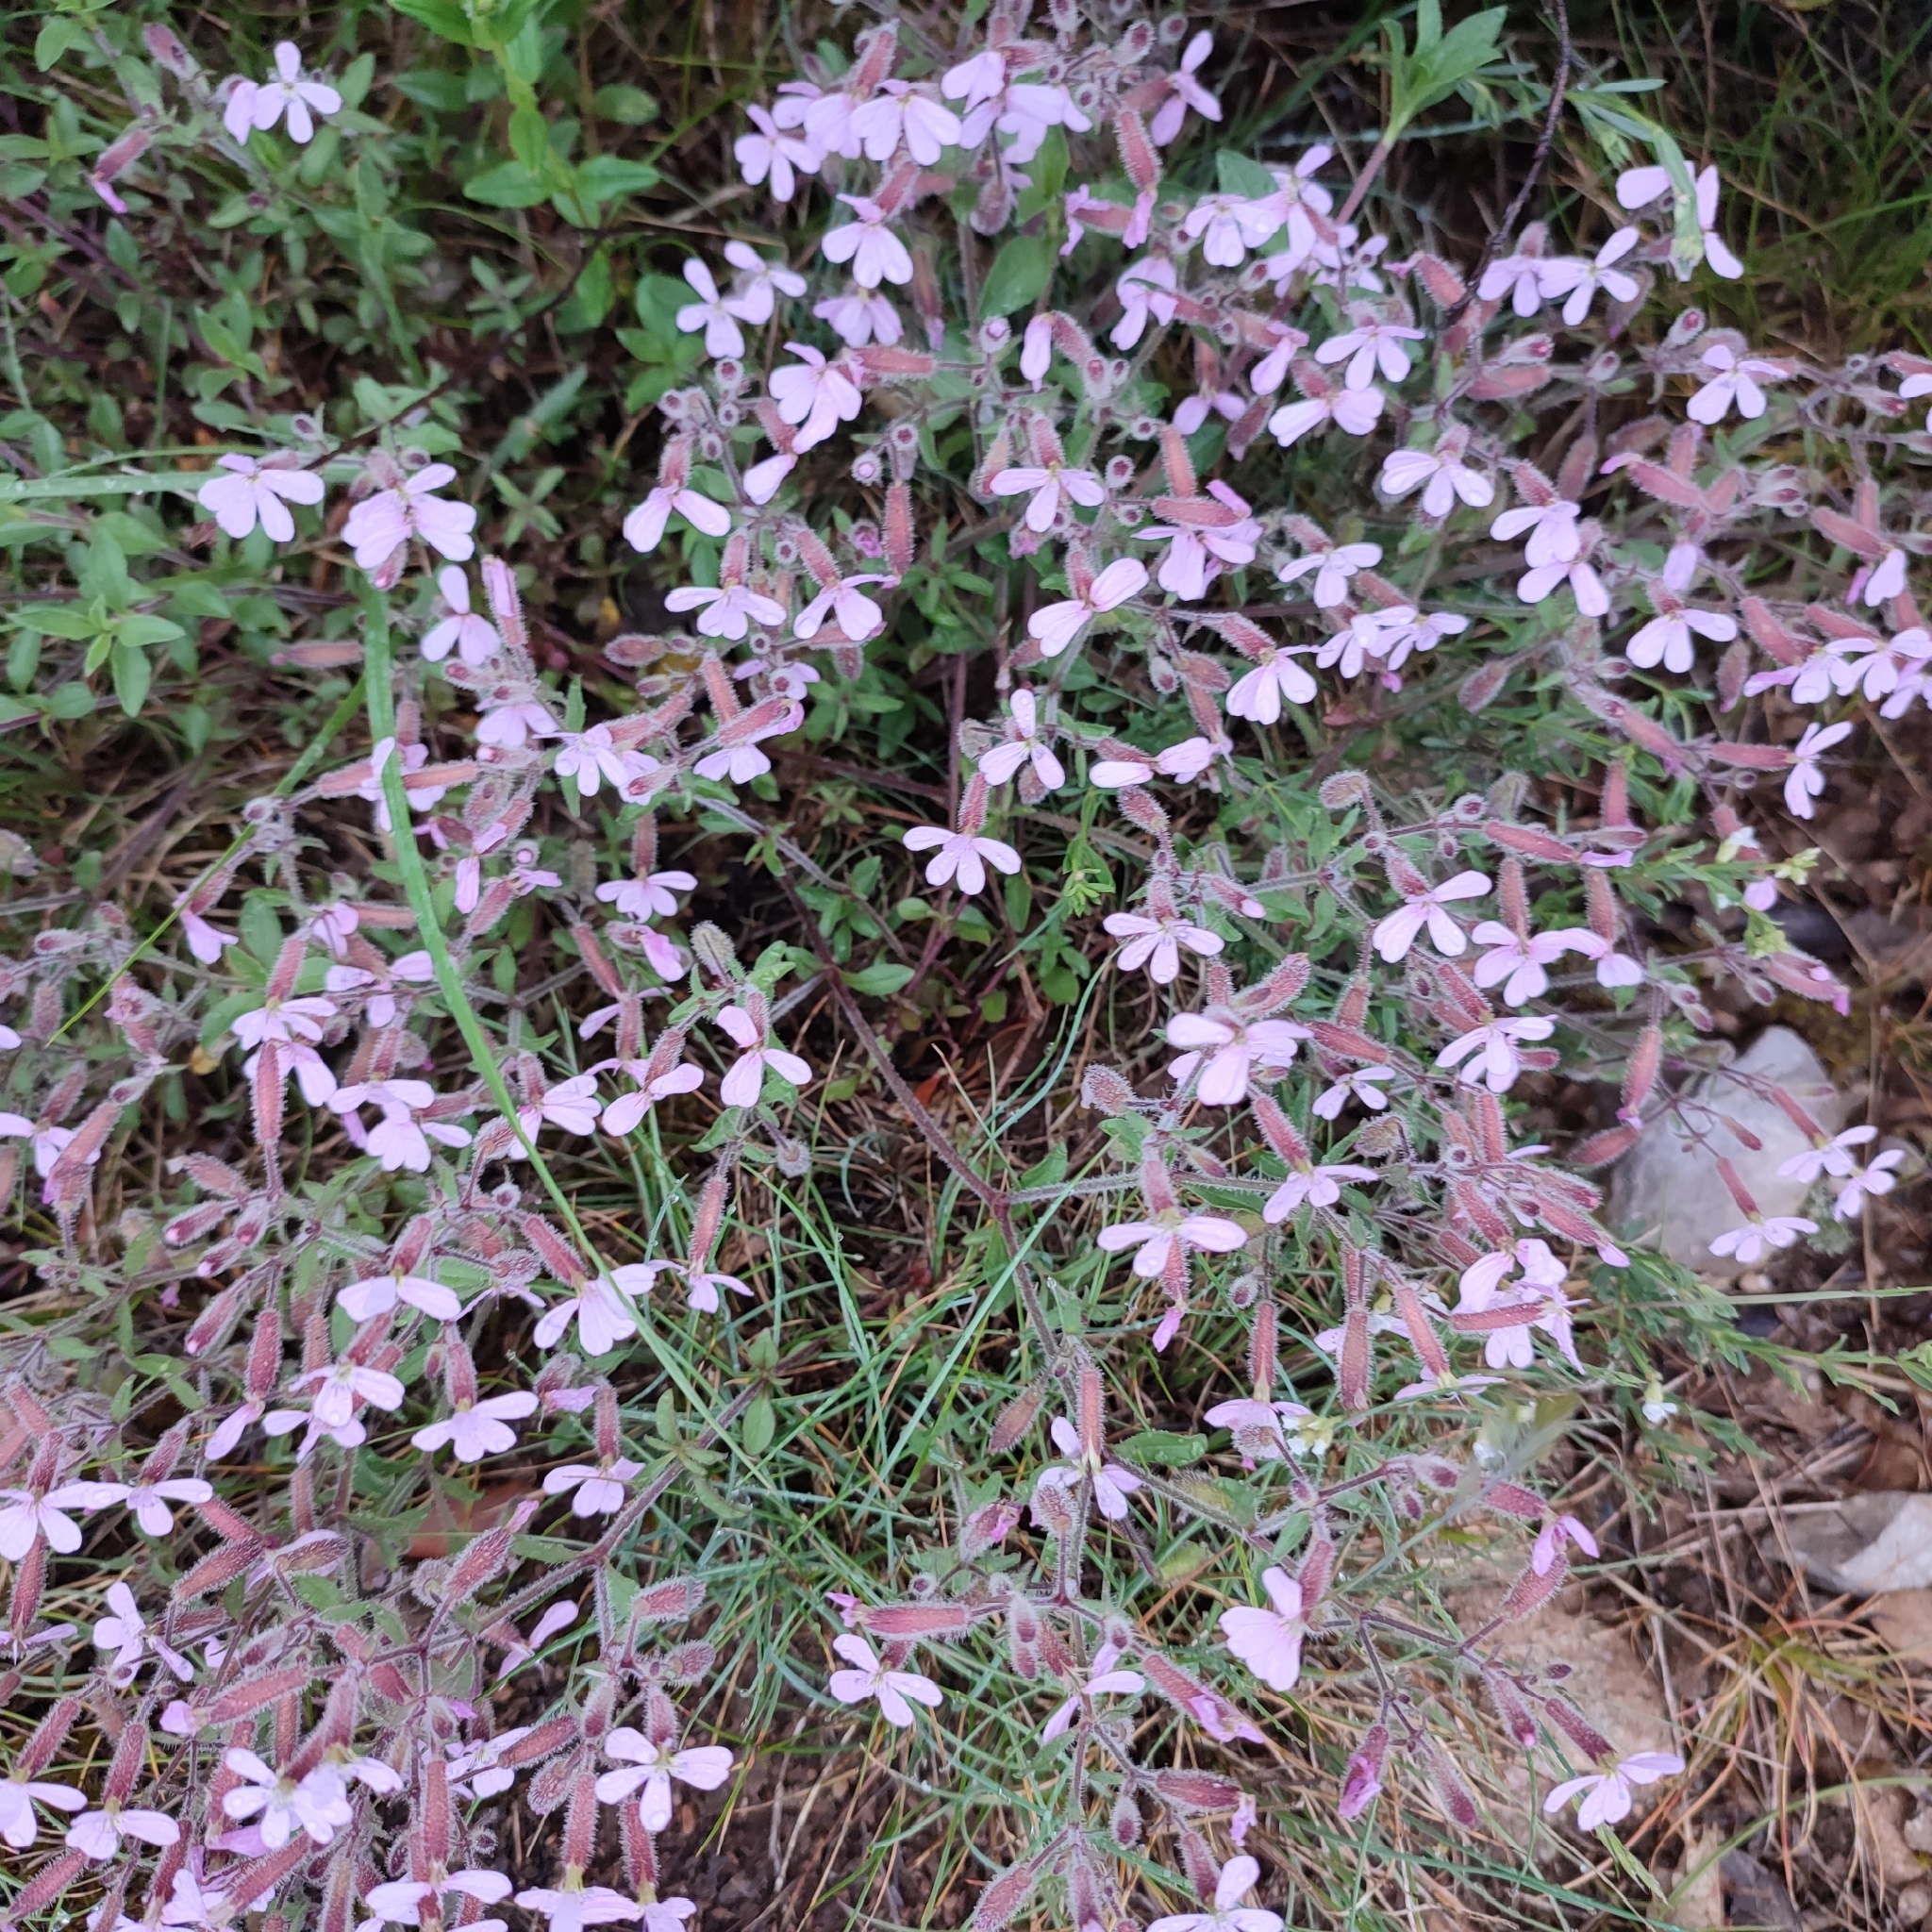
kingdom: Plantae
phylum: Tracheophyta
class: Magnoliopsida
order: Caryophyllales
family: Caryophyllaceae
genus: Saponaria
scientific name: Saponaria ocymoides
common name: Rock soapwort
